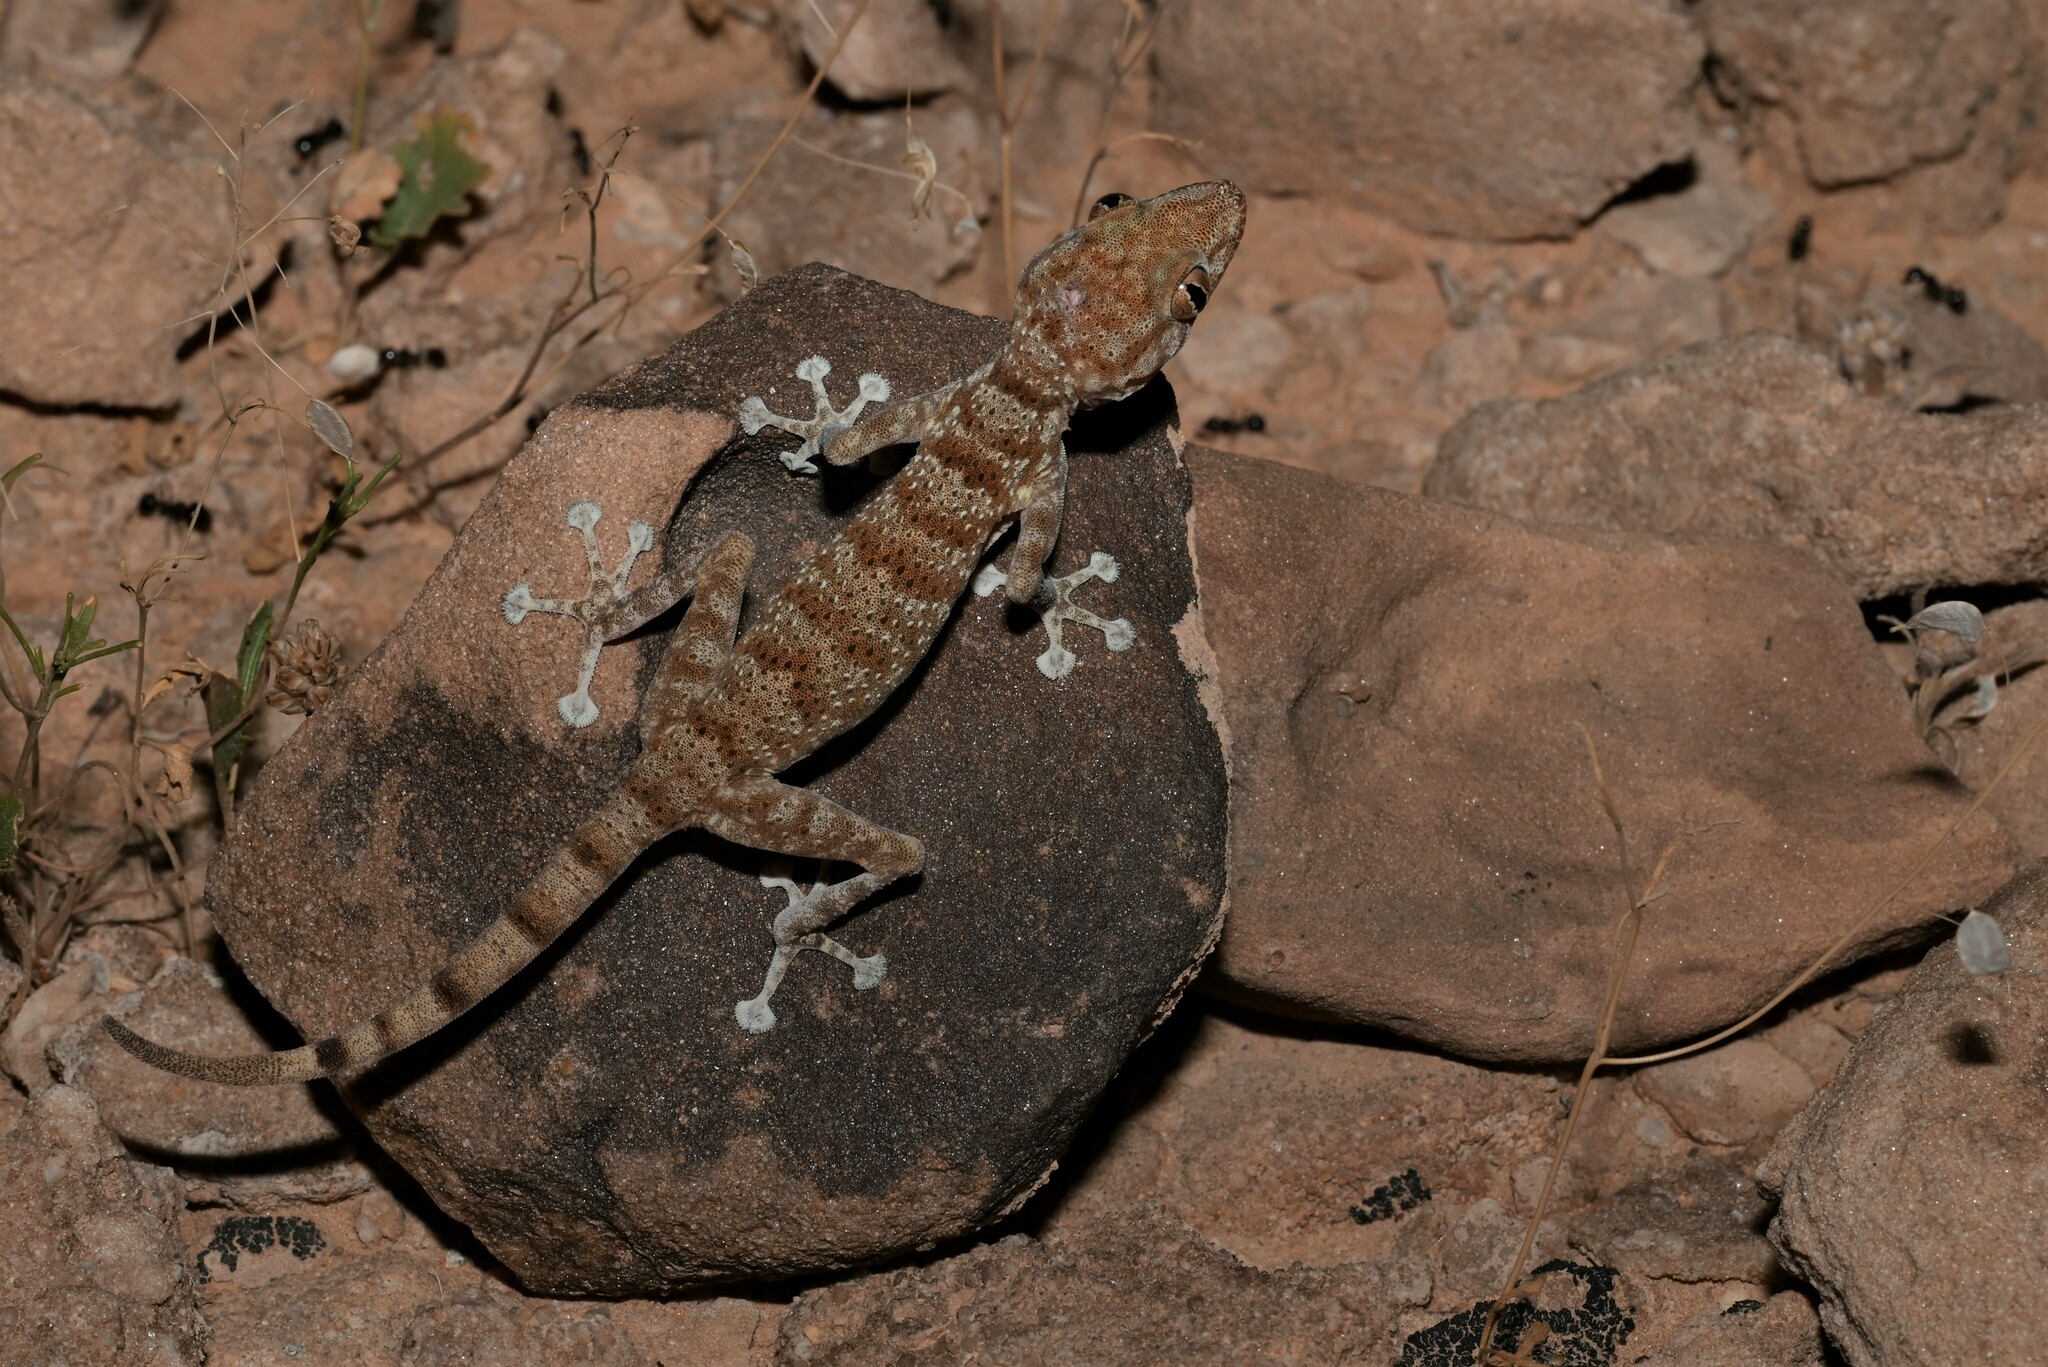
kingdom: Animalia
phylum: Chordata
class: Squamata
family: Phyllodactylidae
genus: Ptyodactylus
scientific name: Ptyodactylus hasselquistii
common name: Hasselquist’s fan-footed gecko
